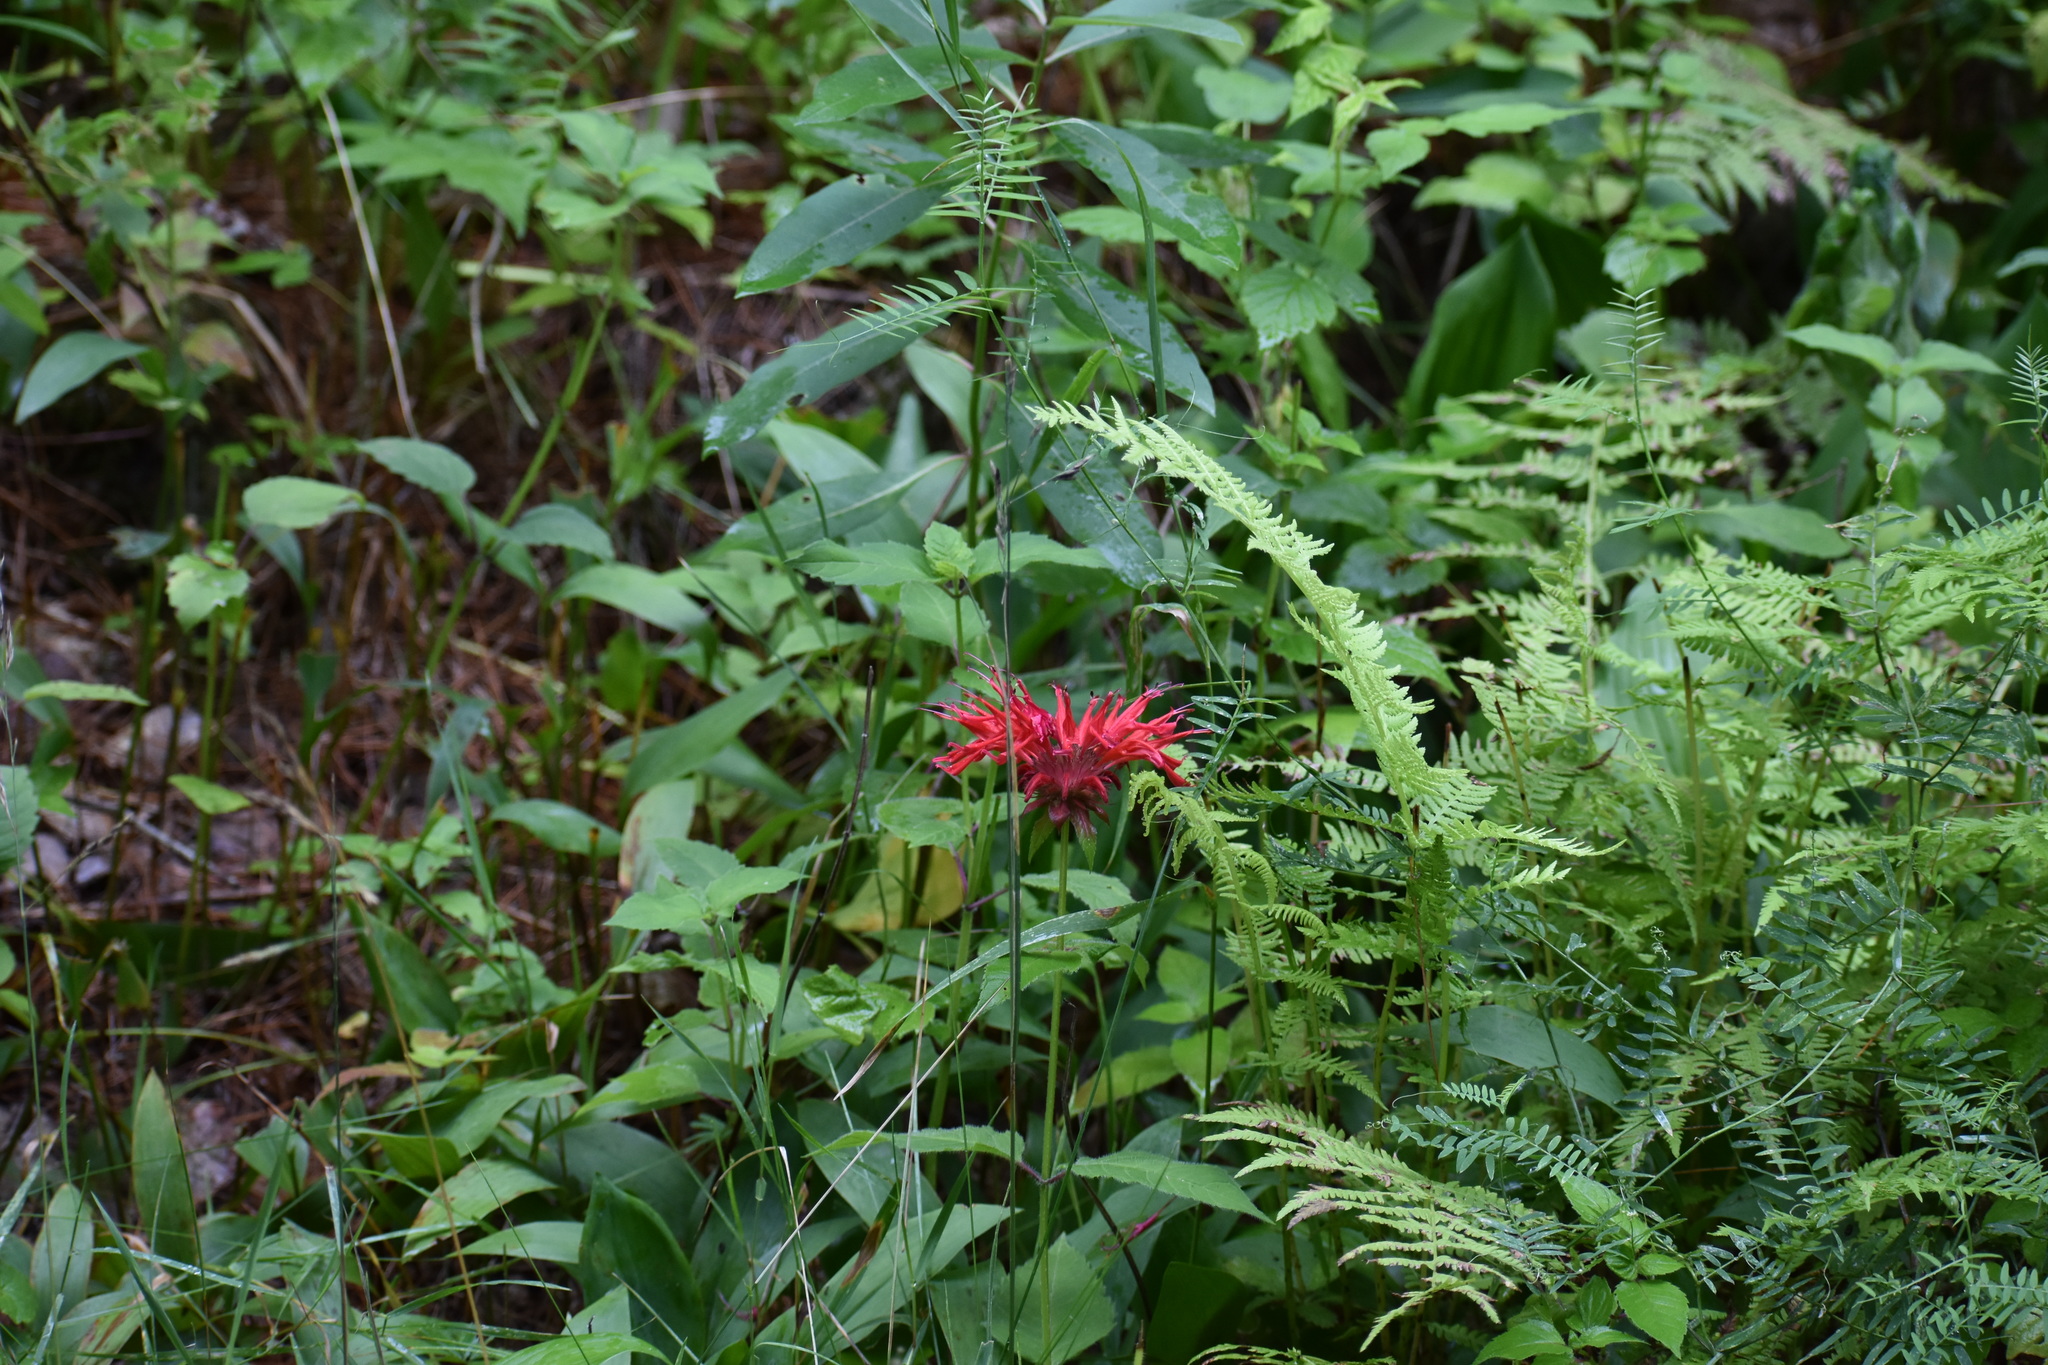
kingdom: Plantae
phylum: Tracheophyta
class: Magnoliopsida
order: Lamiales
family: Lamiaceae
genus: Monarda
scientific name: Monarda didyma
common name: Beebalm
